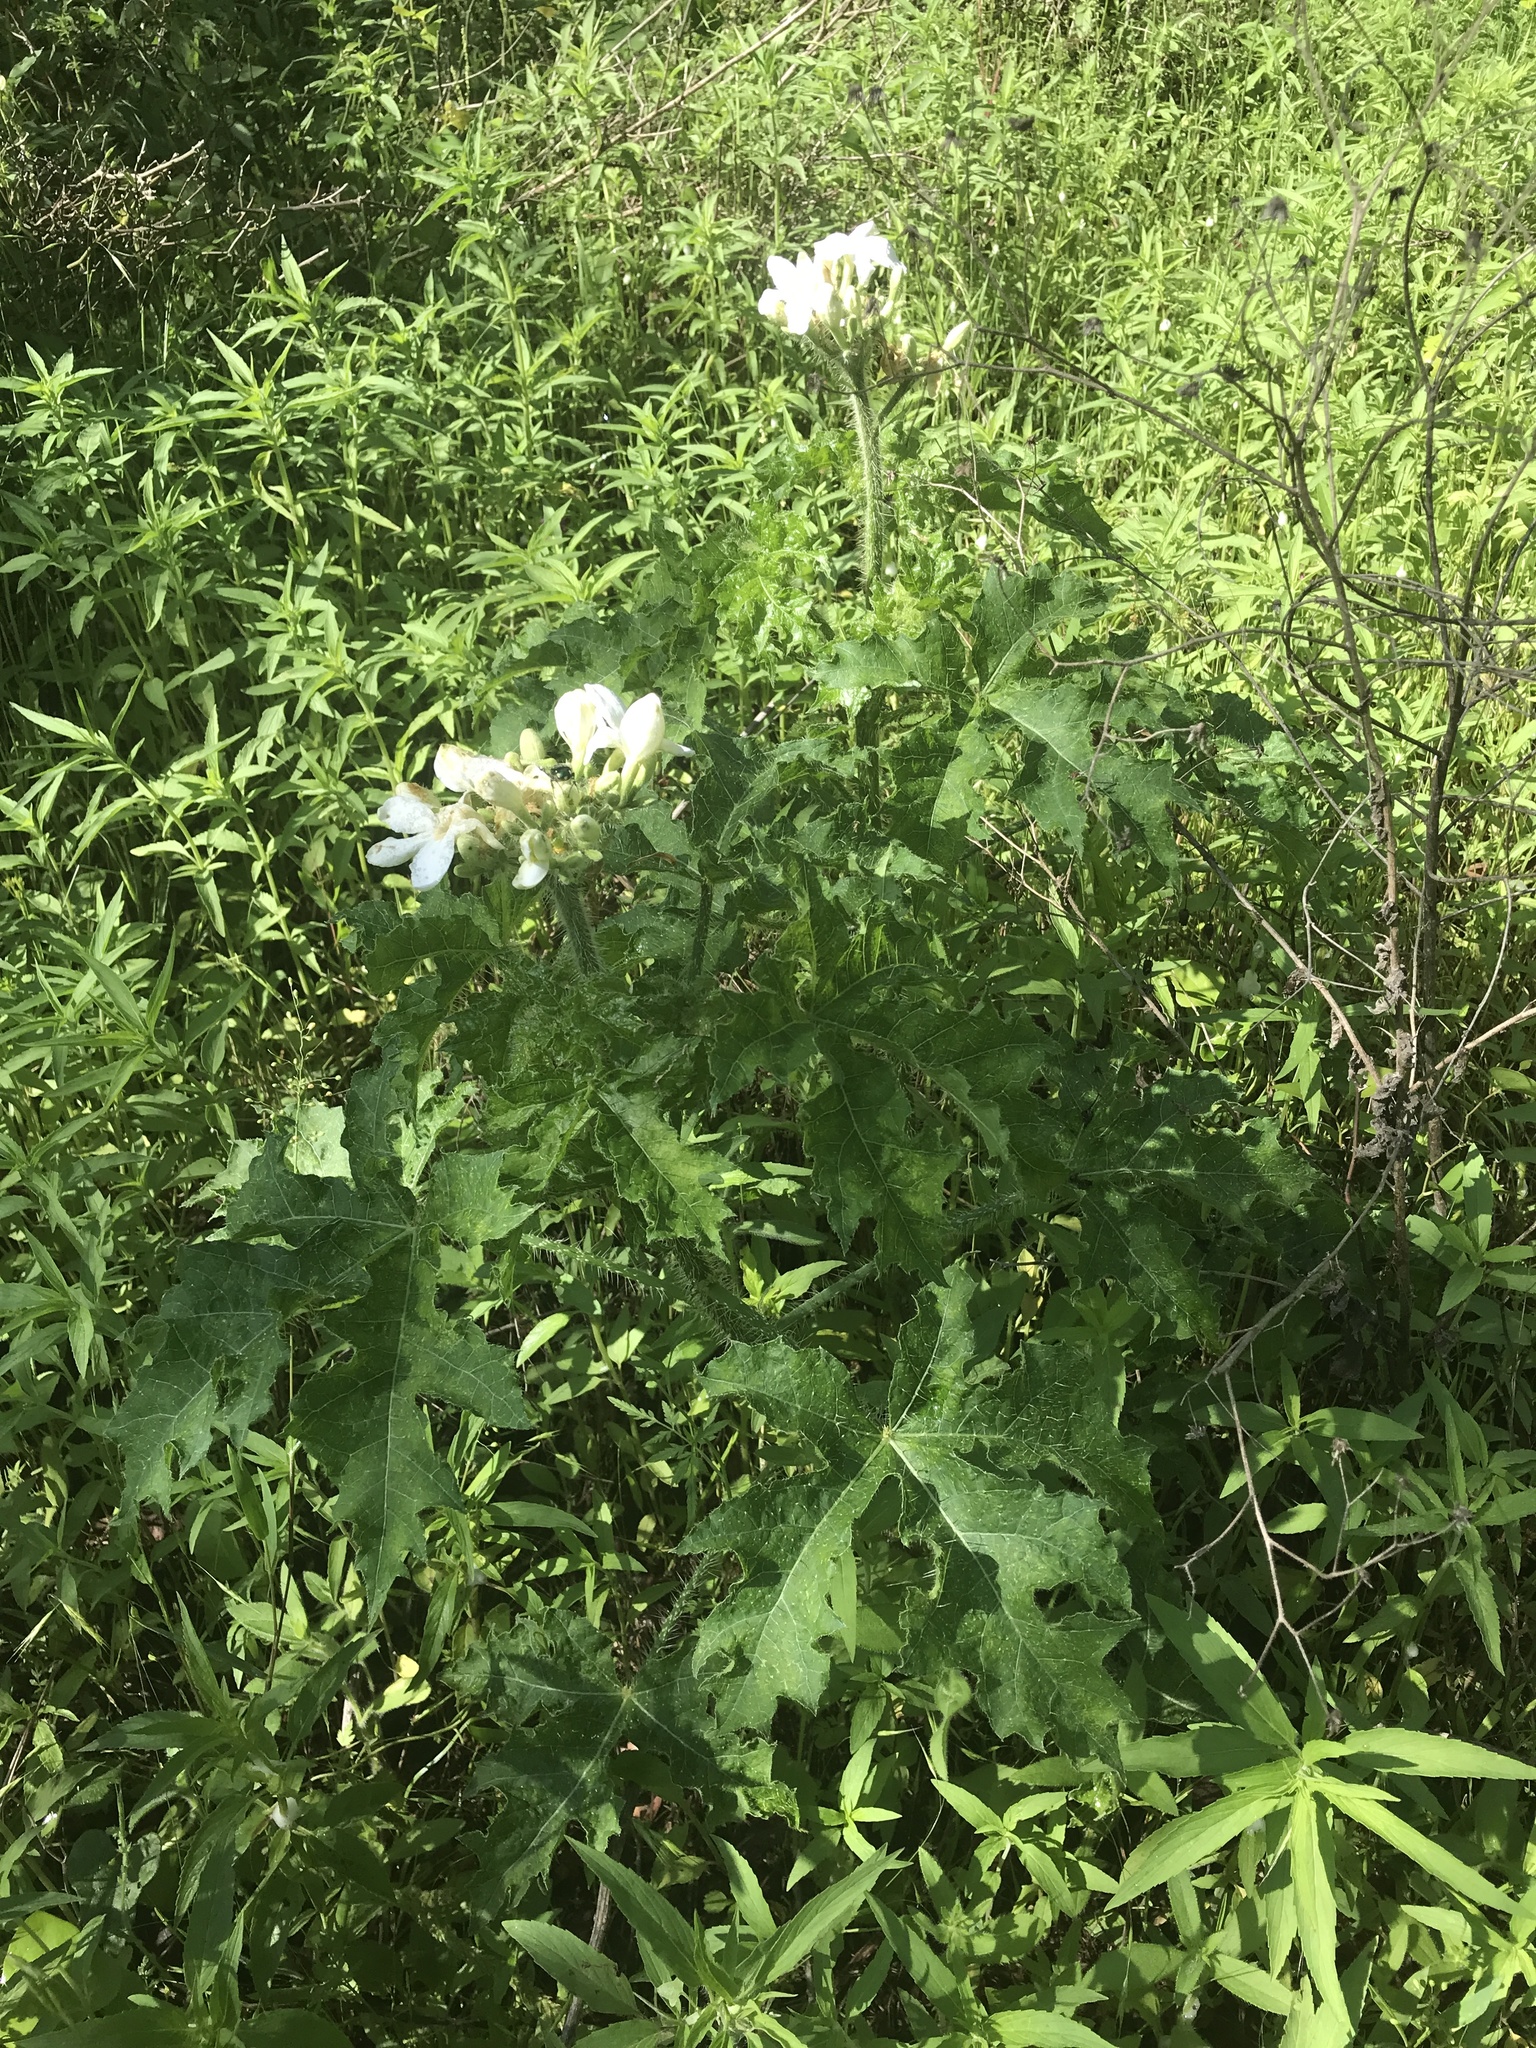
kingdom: Plantae
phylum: Tracheophyta
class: Magnoliopsida
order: Malpighiales
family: Euphorbiaceae
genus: Cnidoscolus
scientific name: Cnidoscolus texanus
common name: Texas bull-nettle
